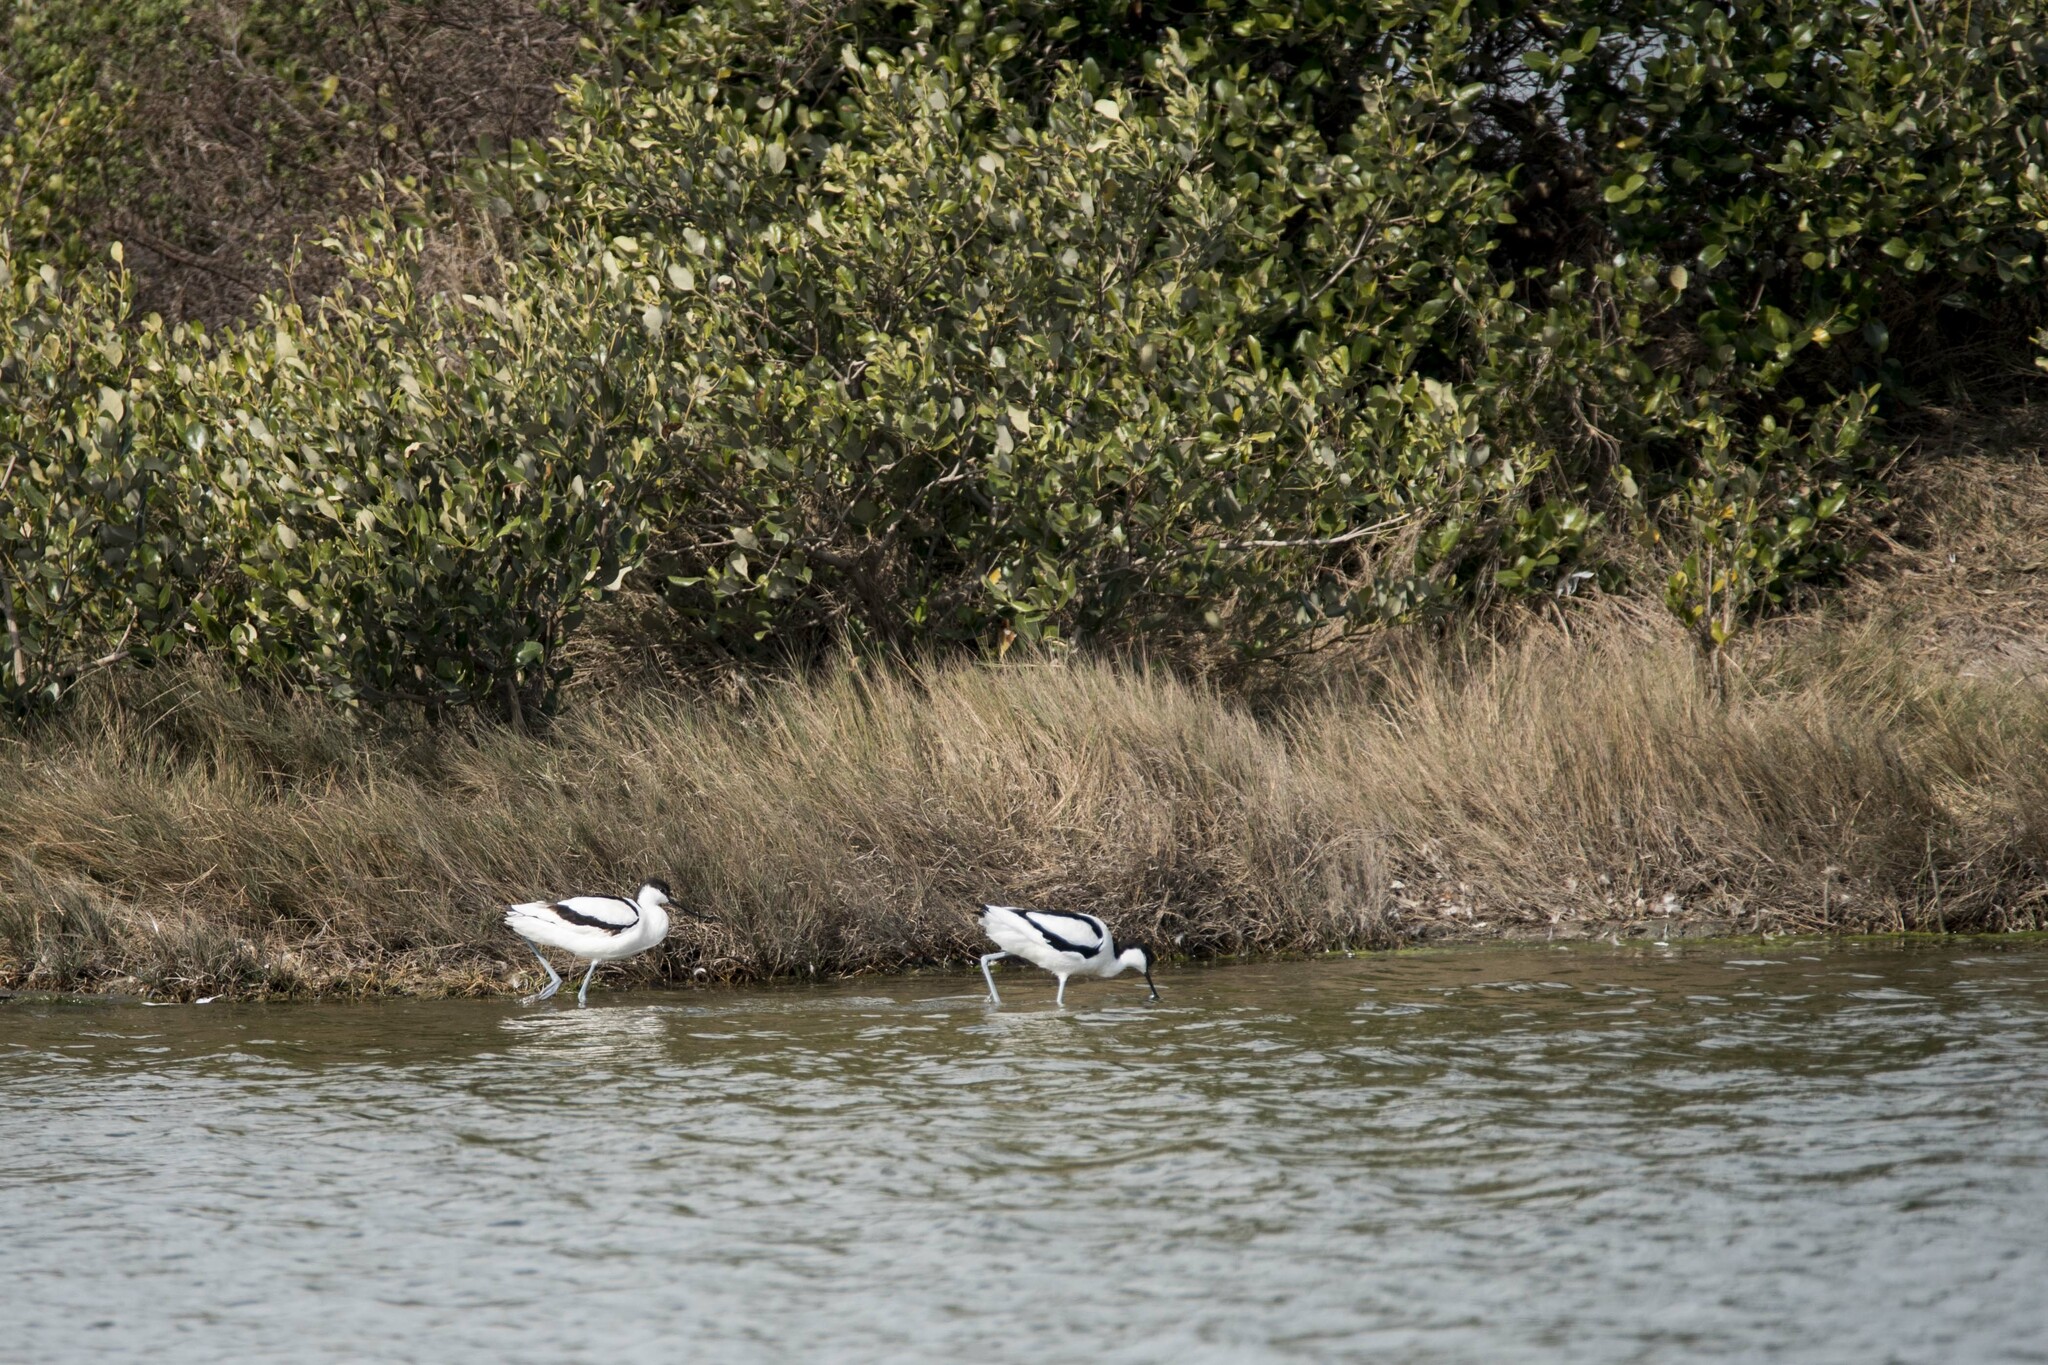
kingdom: Animalia
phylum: Chordata
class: Aves
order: Charadriiformes
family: Recurvirostridae
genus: Recurvirostra
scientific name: Recurvirostra avosetta
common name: Pied avocet
